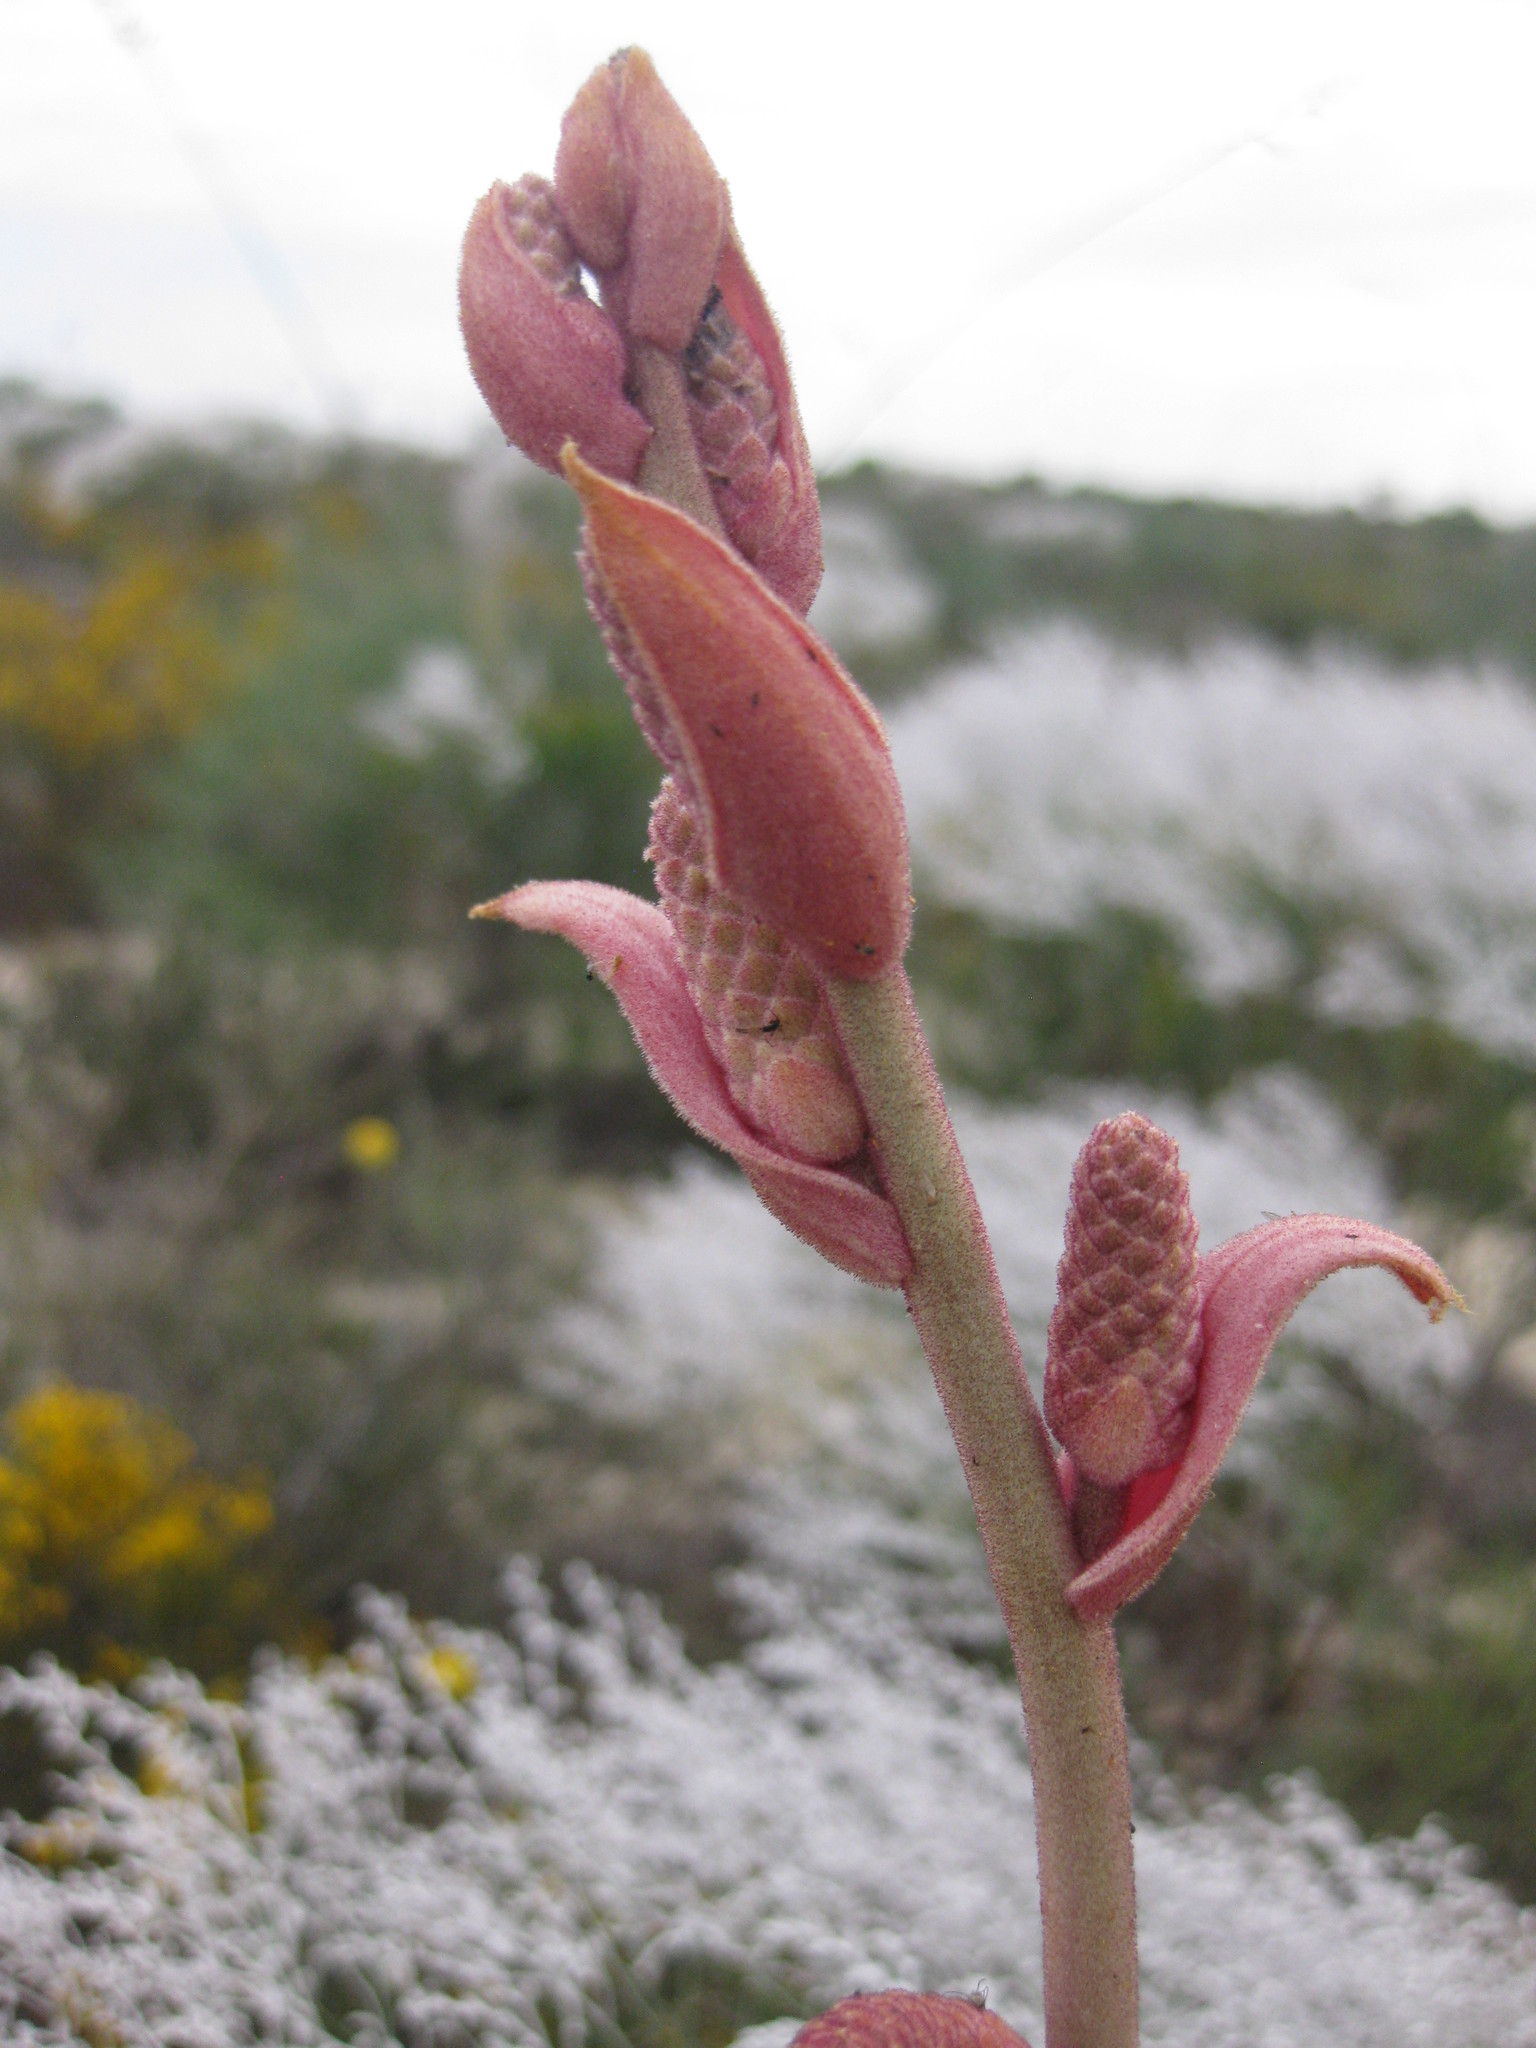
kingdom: Plantae
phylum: Tracheophyta
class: Magnoliopsida
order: Proteales
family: Proteaceae
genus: Grevillea
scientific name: Grevillea leucopteris
